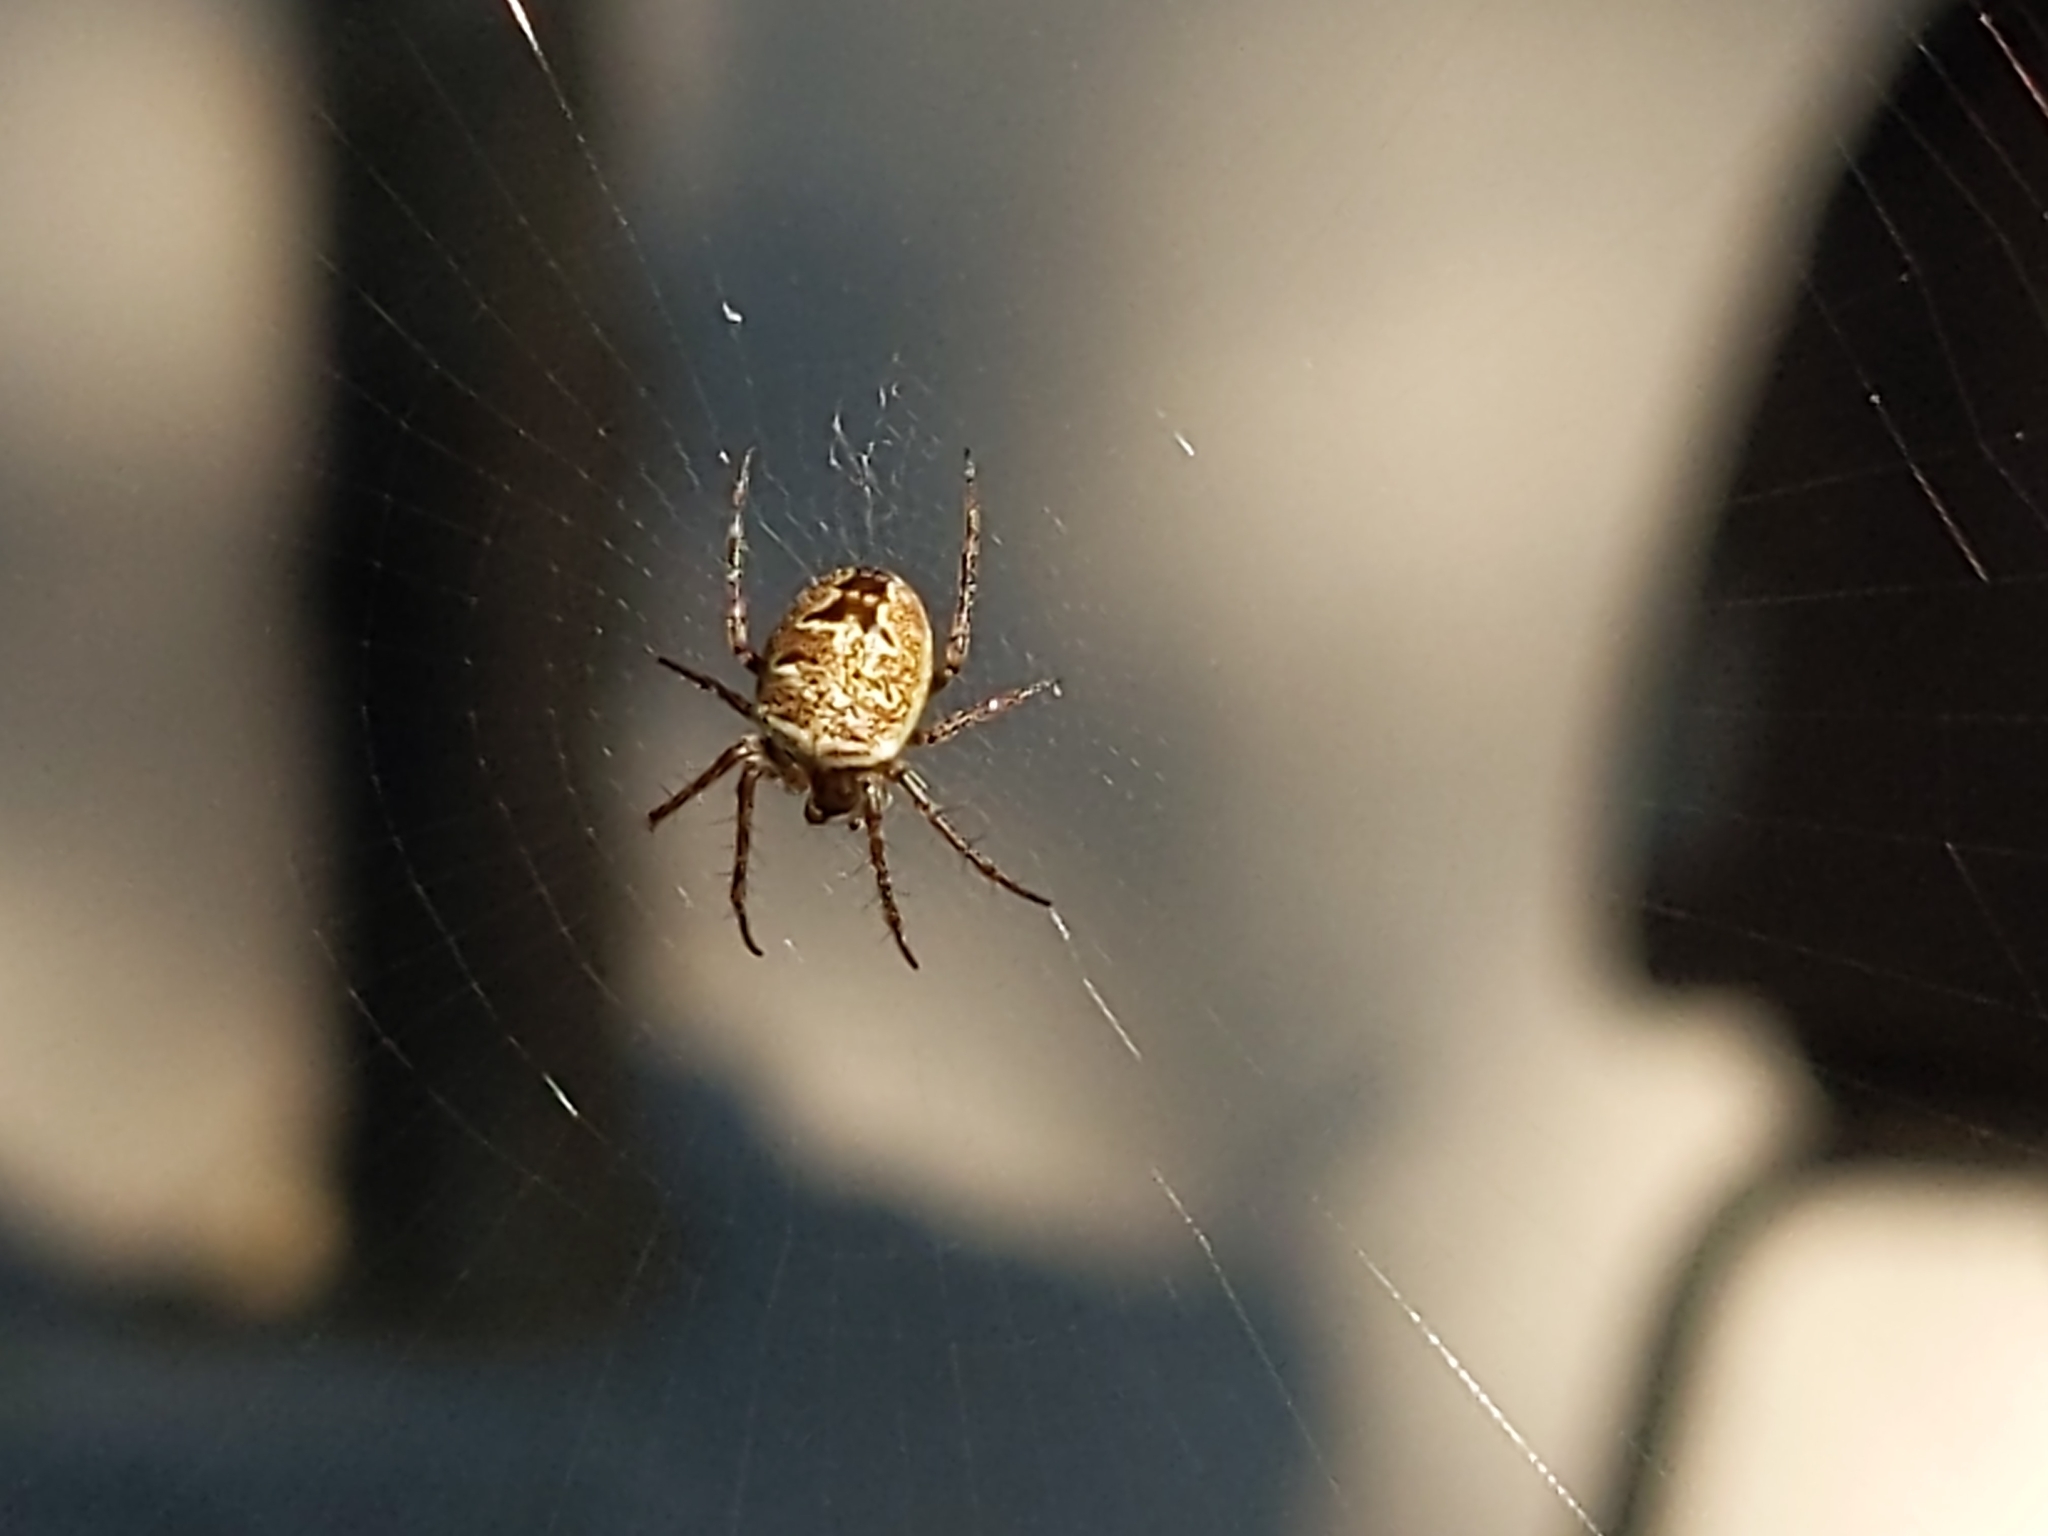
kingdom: Animalia
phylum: Arthropoda
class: Arachnida
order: Araneae
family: Araneidae
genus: Zilla
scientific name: Zilla diodia
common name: Zilla diodia
